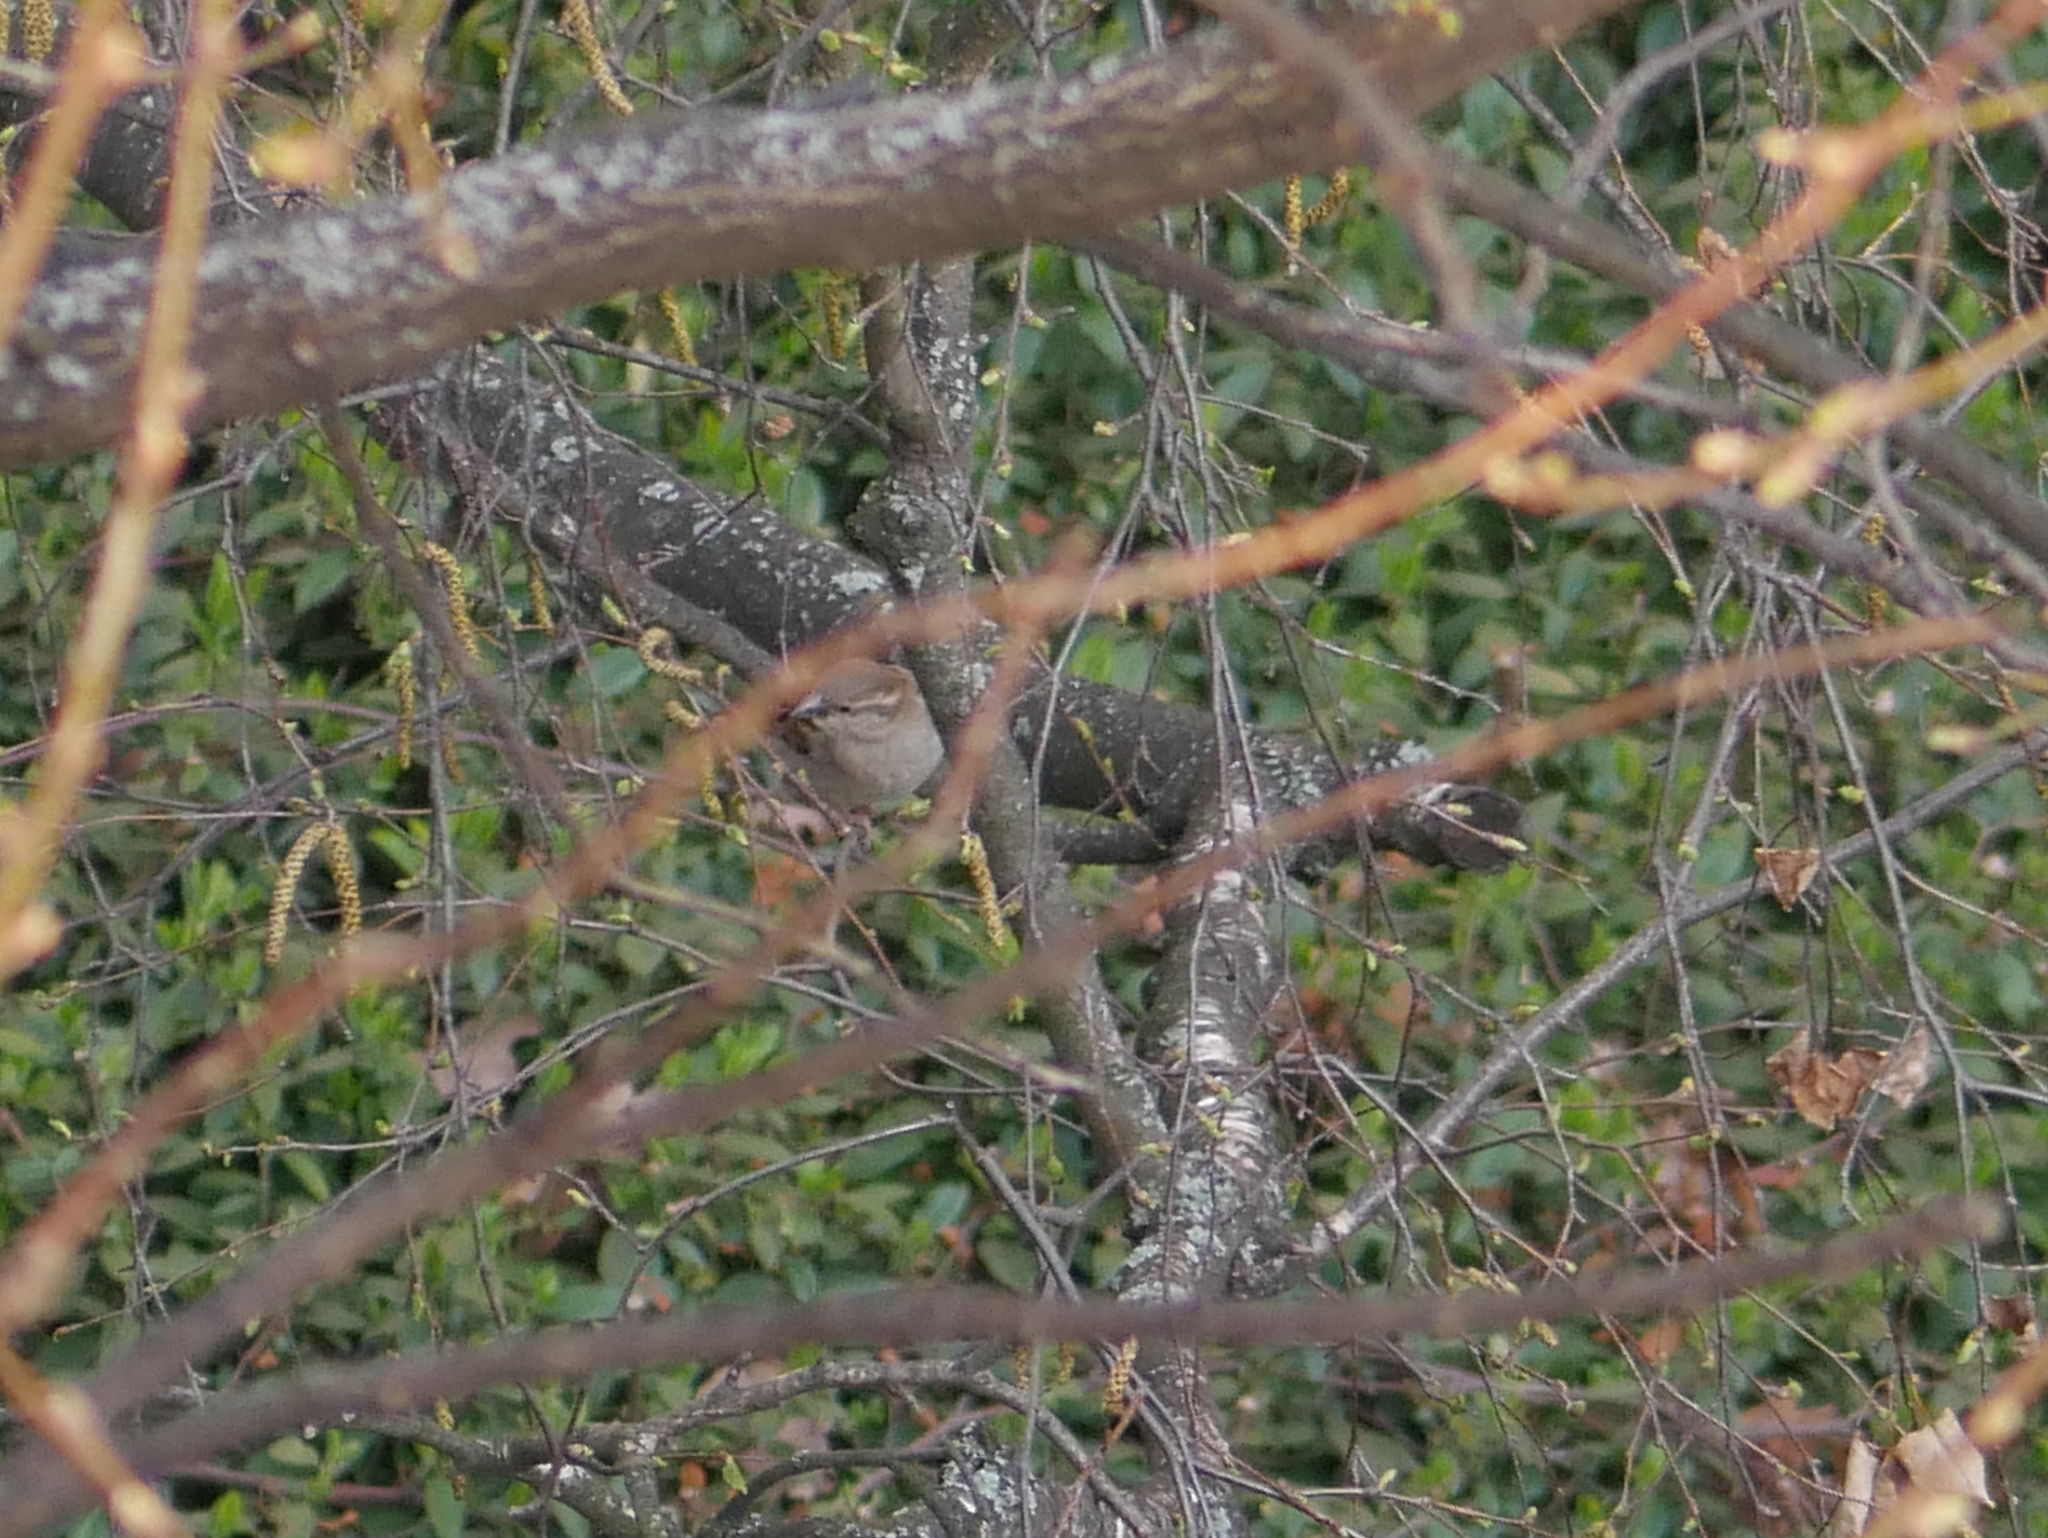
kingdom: Animalia
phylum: Chordata
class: Aves
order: Passeriformes
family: Passeridae
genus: Passer
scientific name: Passer domesticus
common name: House sparrow
